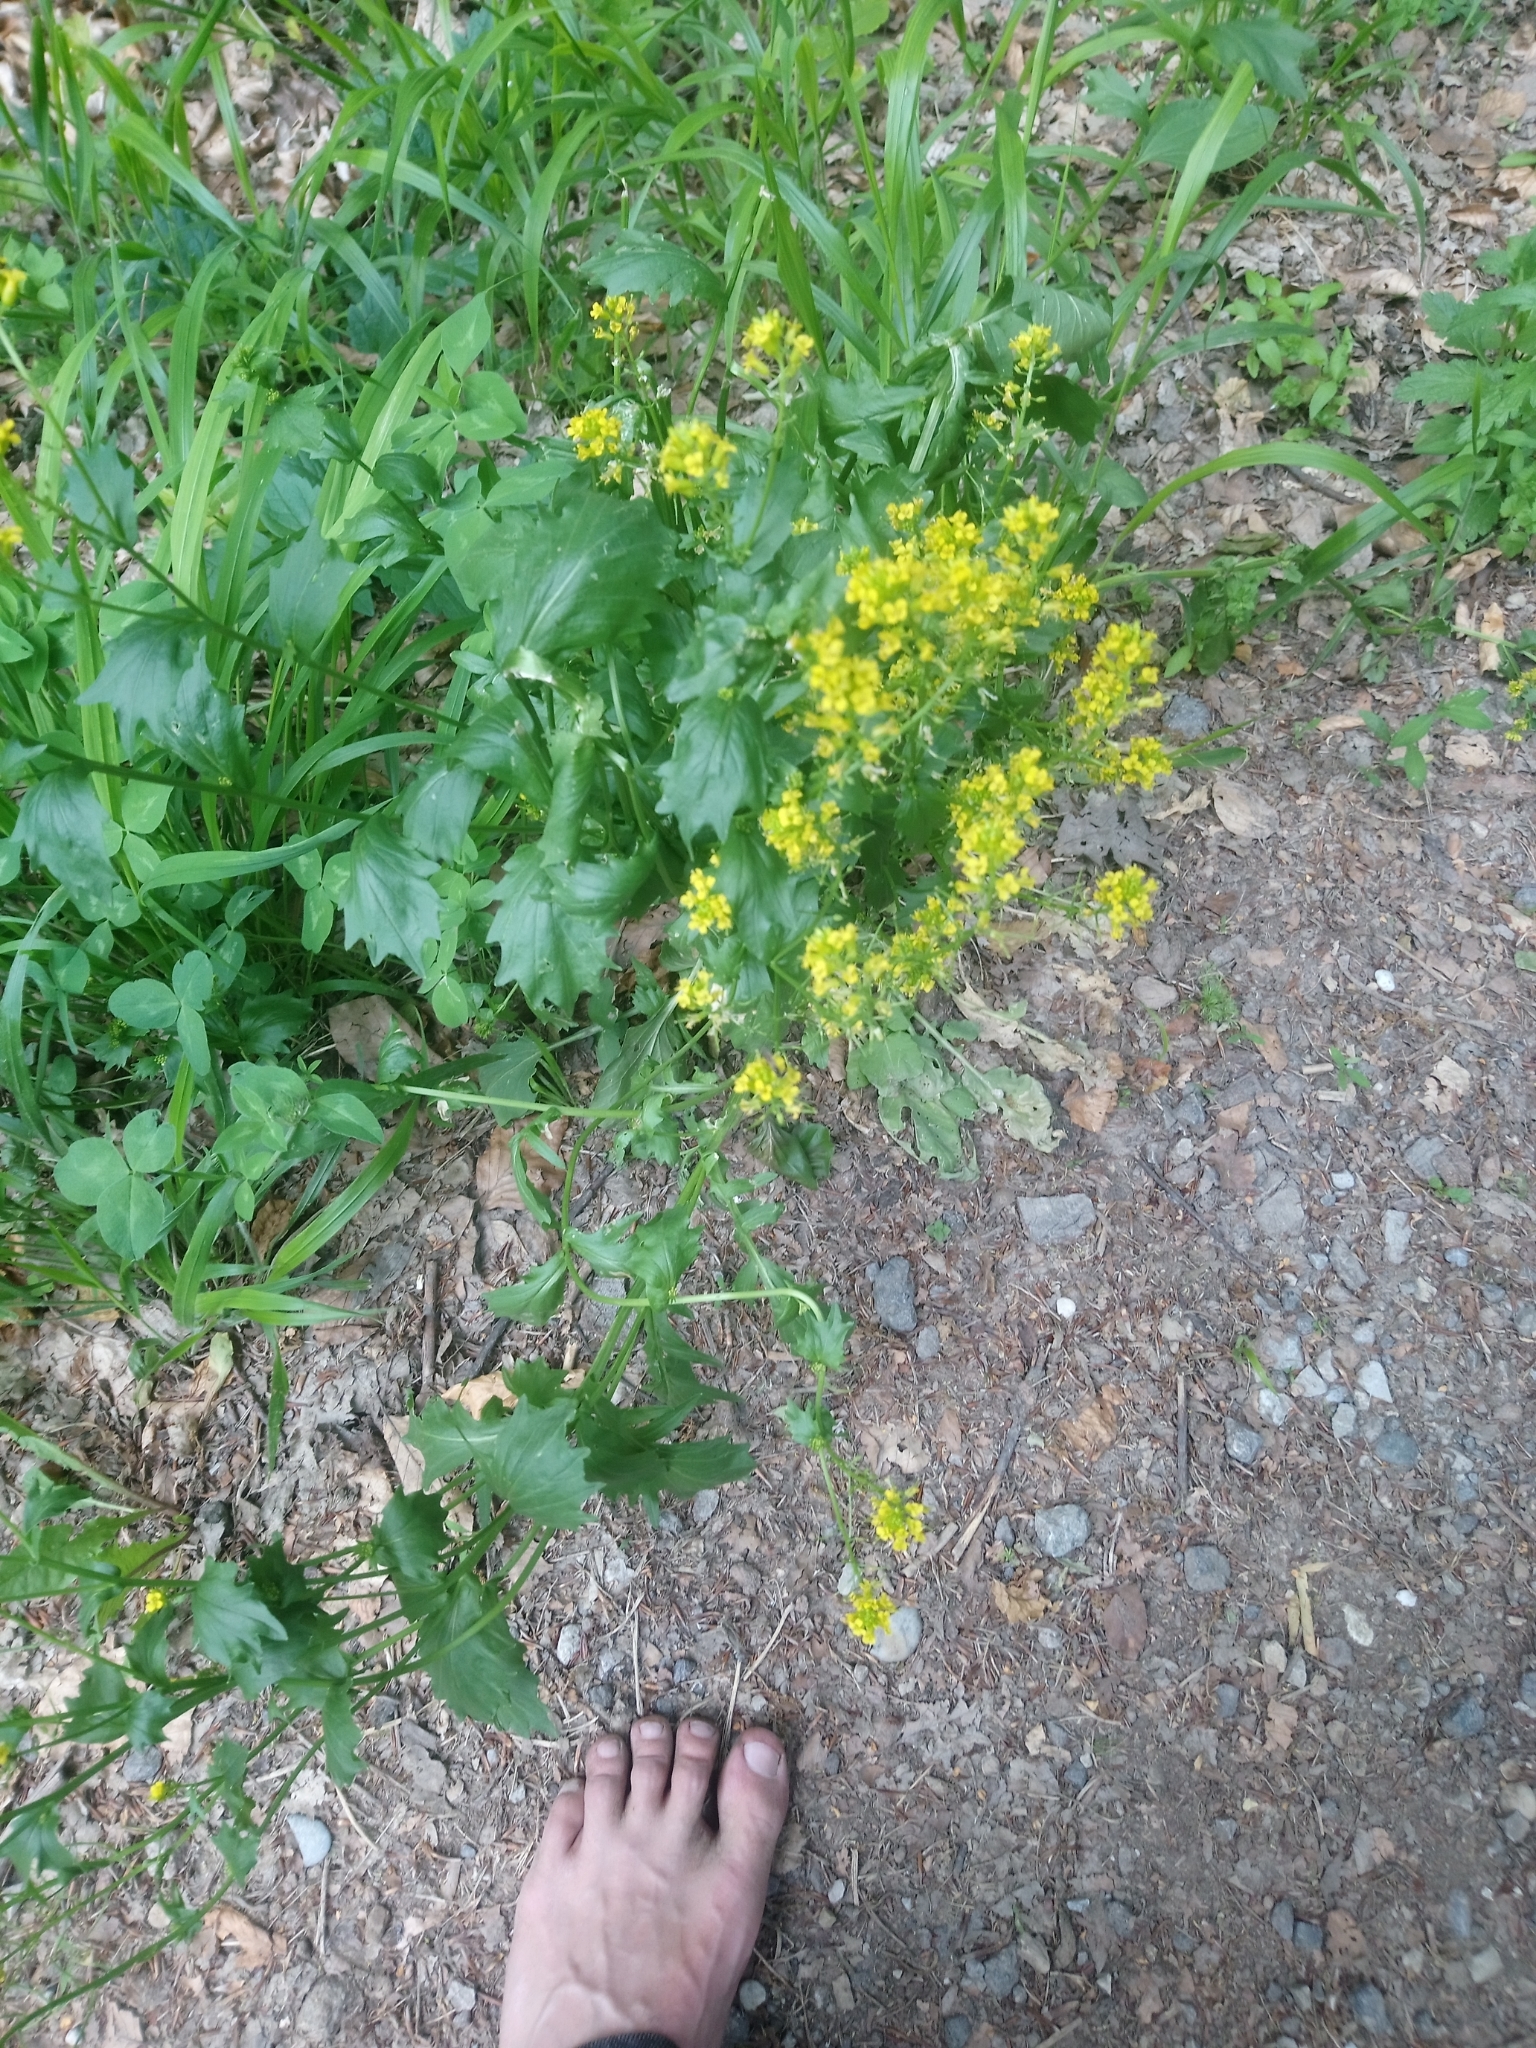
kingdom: Plantae
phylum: Tracheophyta
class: Magnoliopsida
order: Brassicales
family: Brassicaceae
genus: Barbarea
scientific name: Barbarea vulgaris
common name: Cressy-greens
